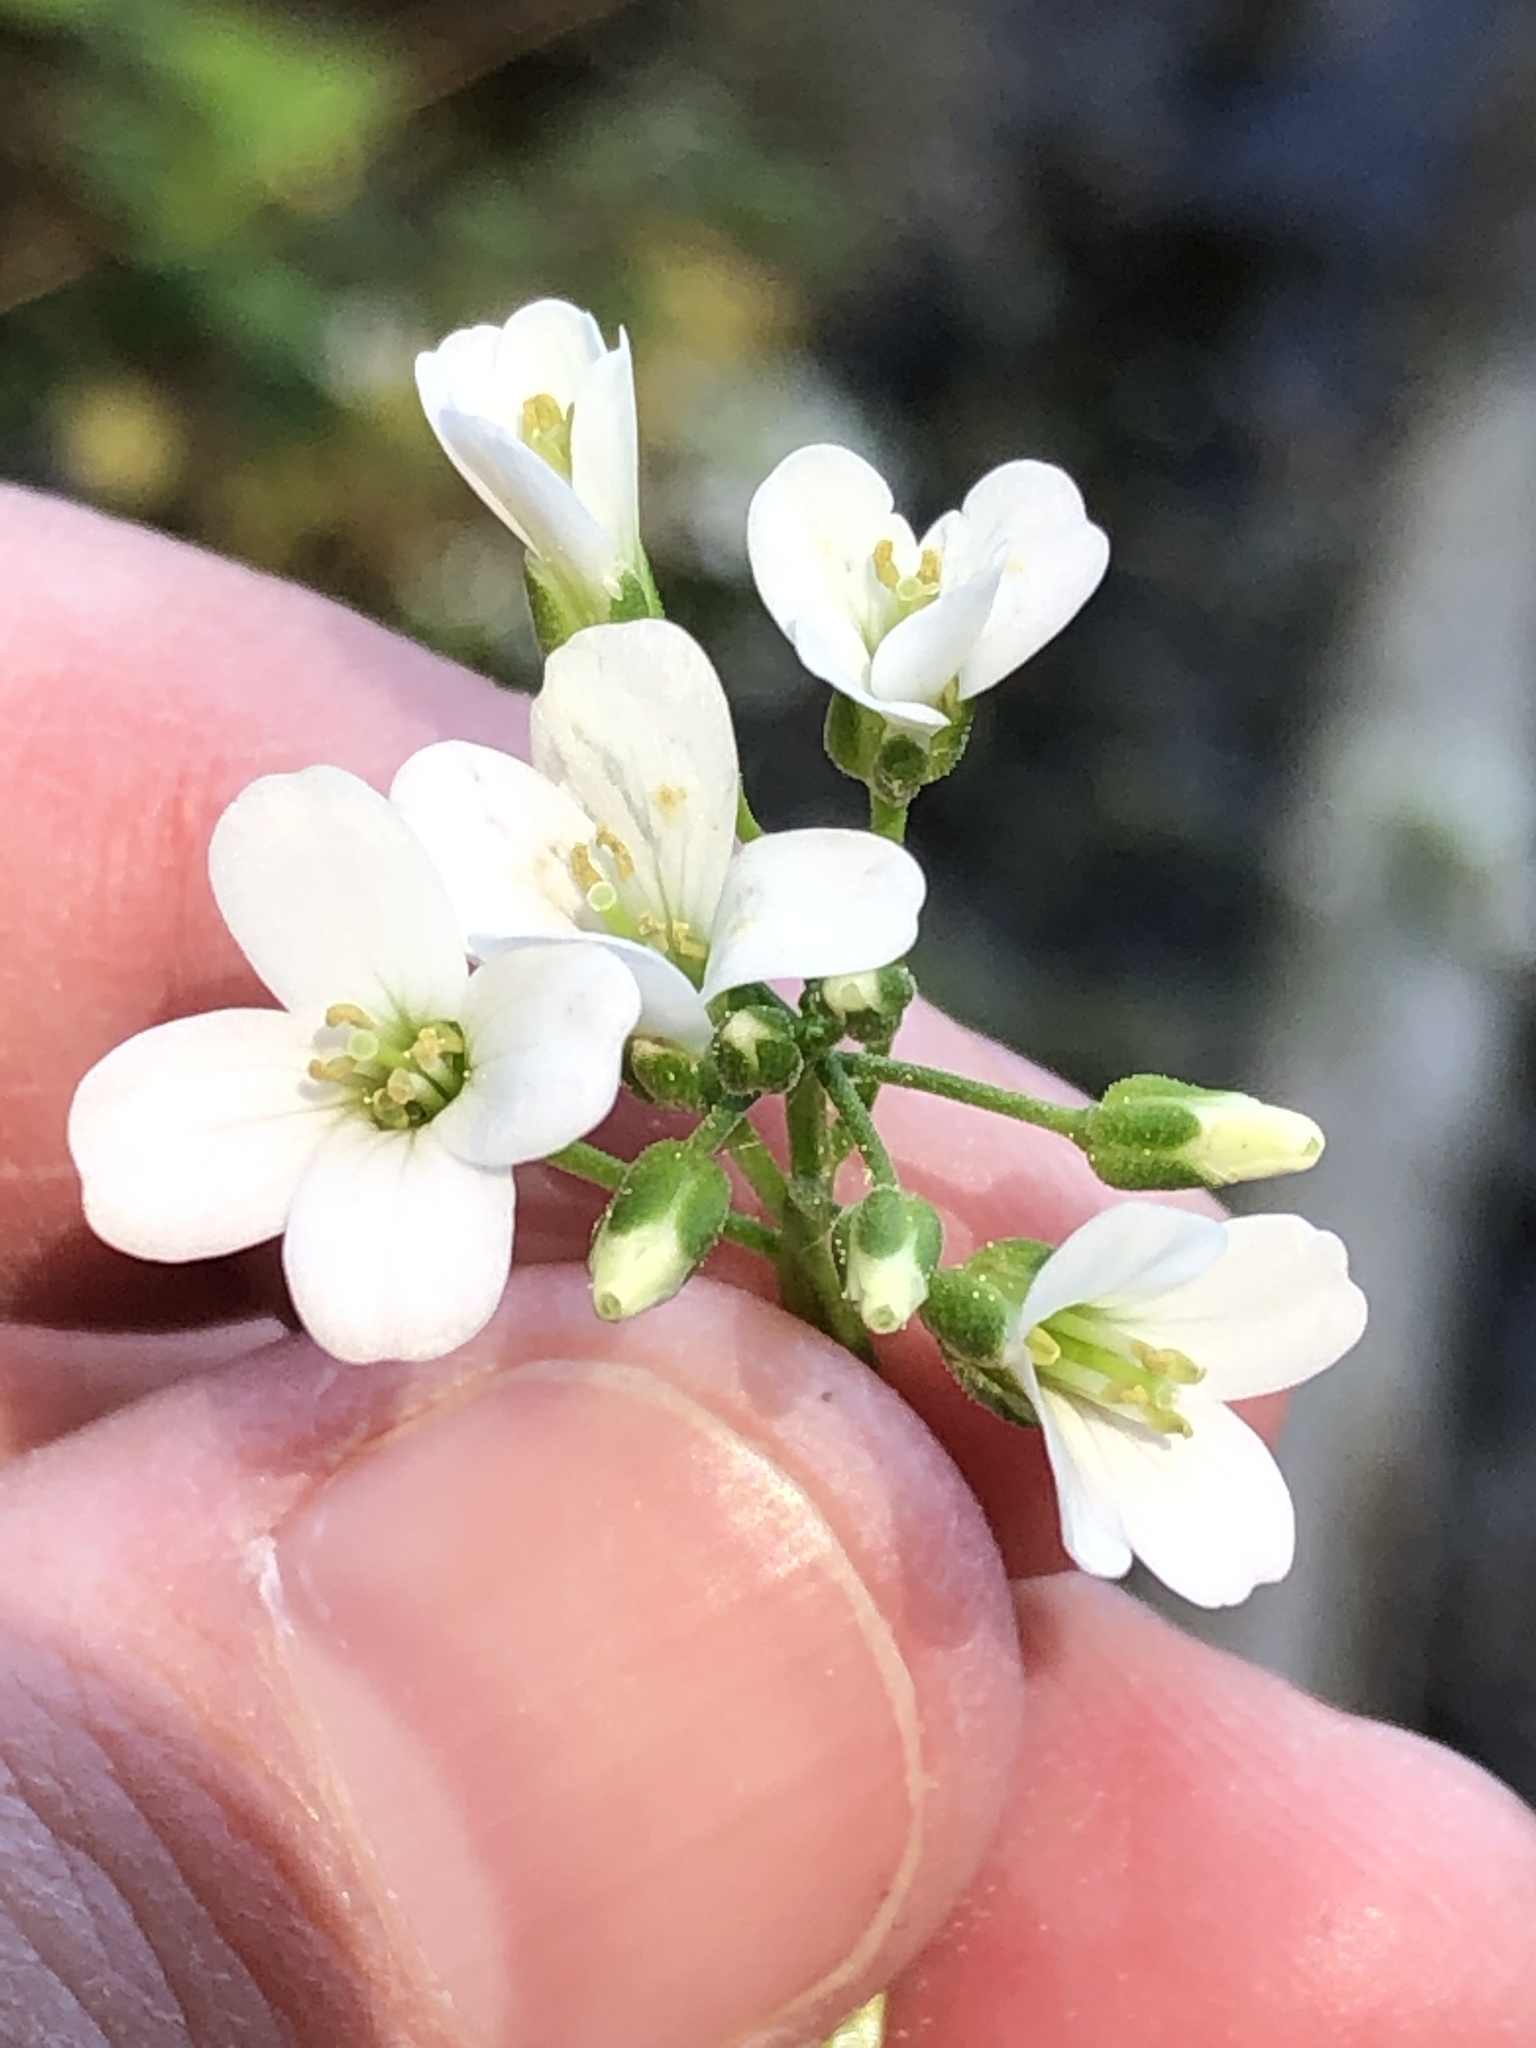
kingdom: Plantae
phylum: Tracheophyta
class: Magnoliopsida
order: Brassicales
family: Brassicaceae
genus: Cardamine
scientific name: Cardamine bulbosa
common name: Spring cress
